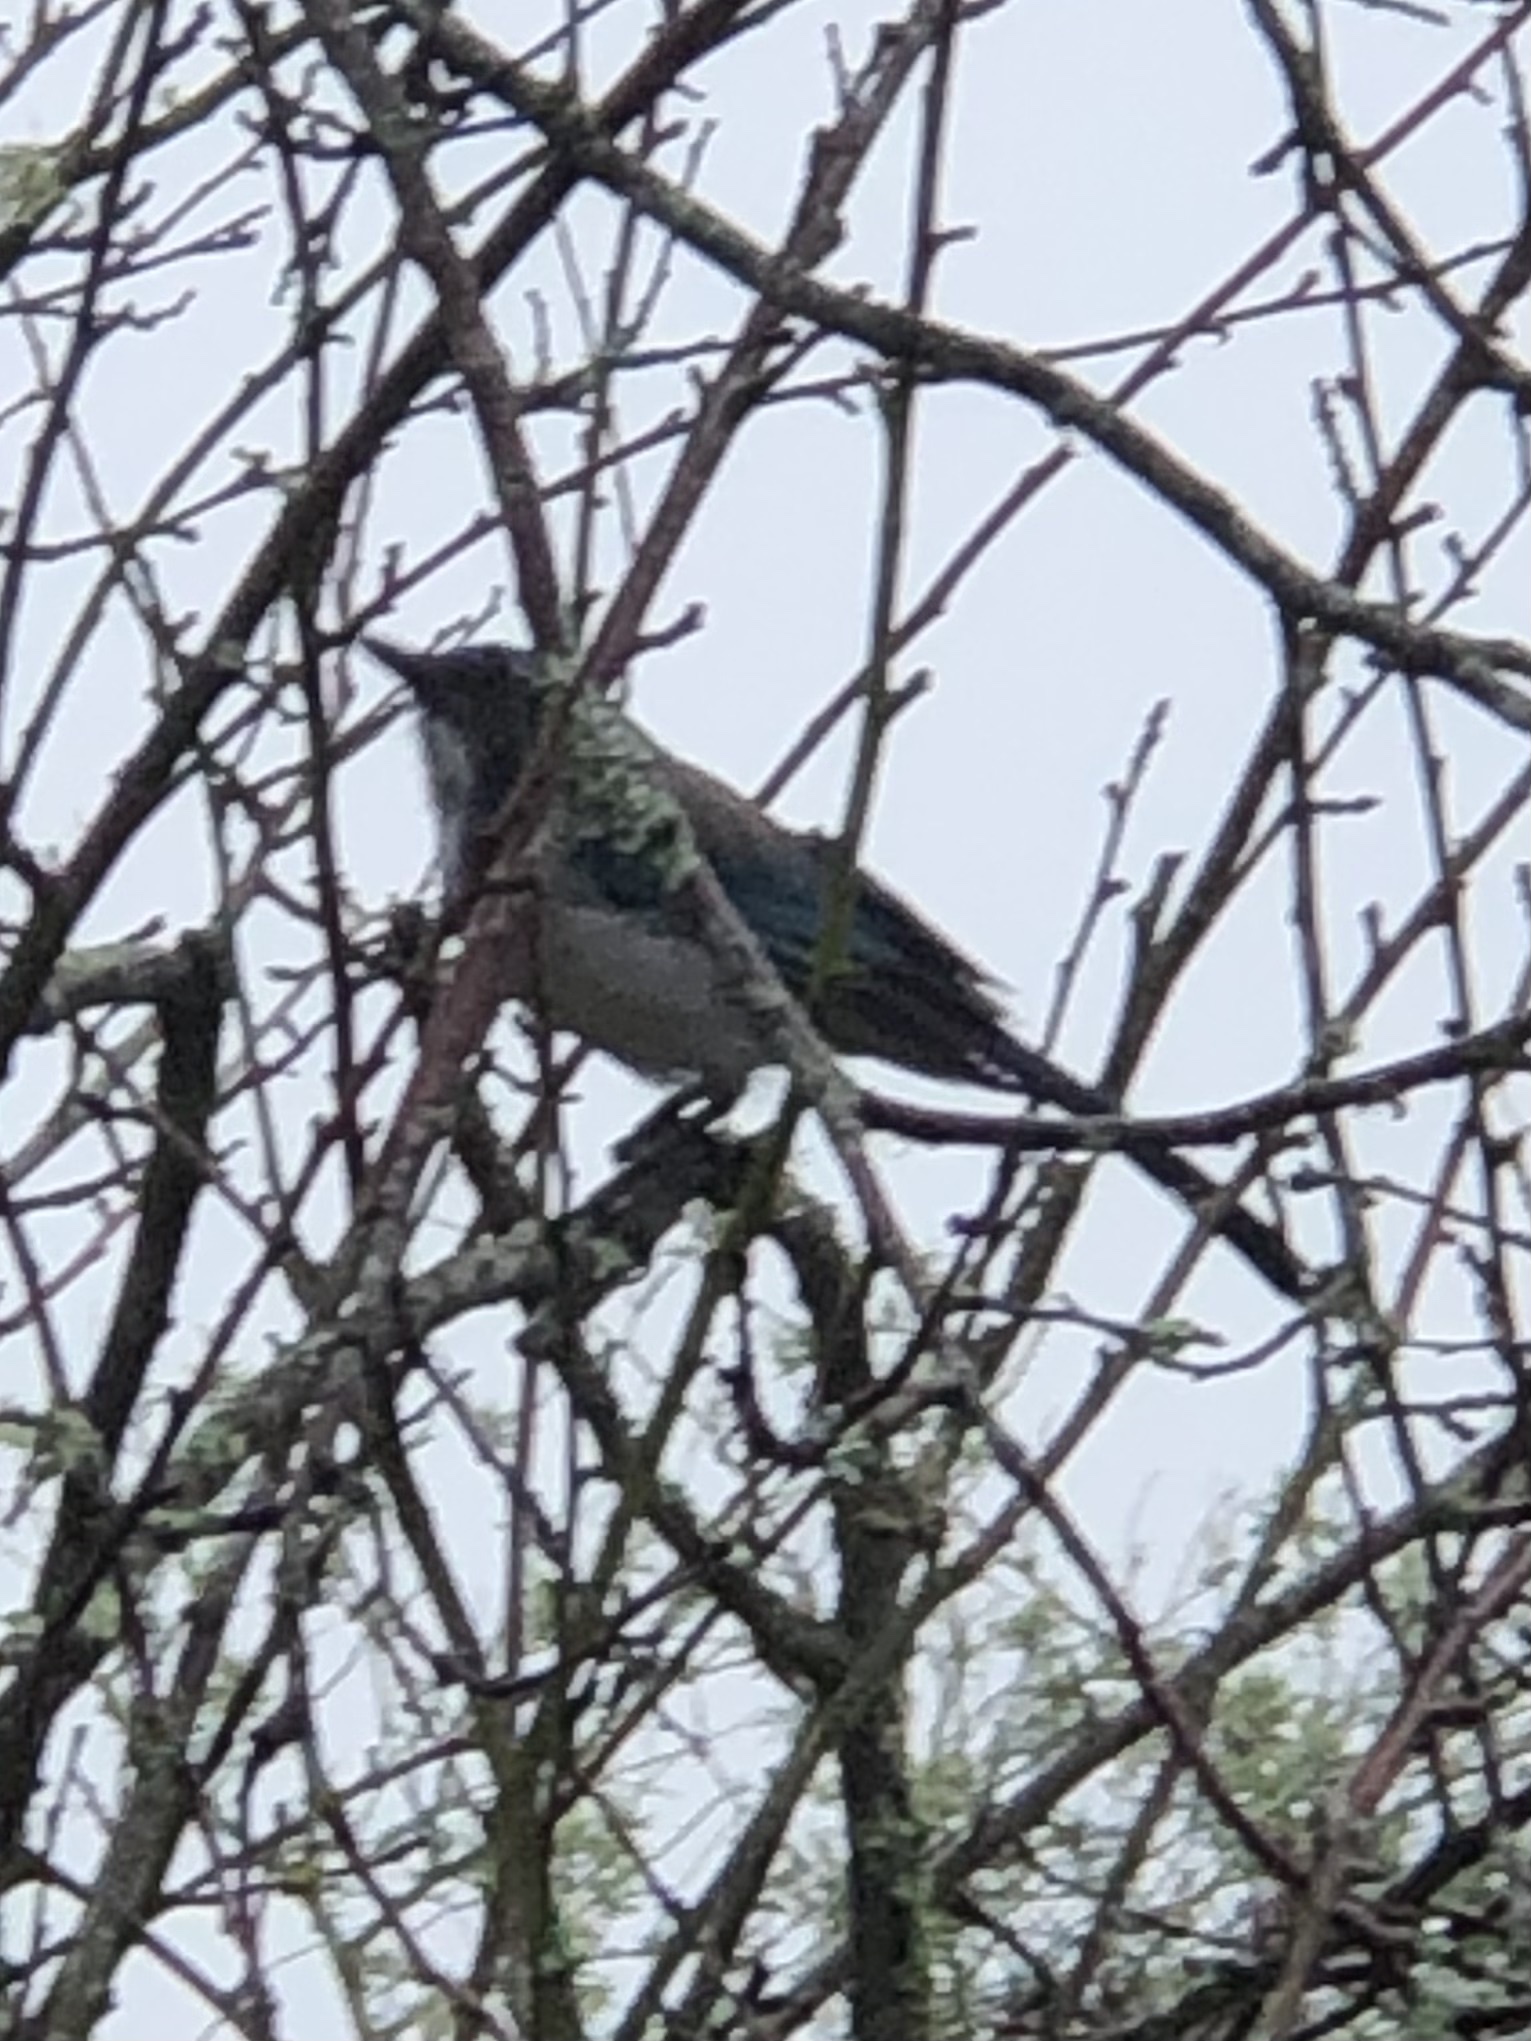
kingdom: Animalia
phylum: Chordata
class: Aves
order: Passeriformes
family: Corvidae
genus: Aphelocoma
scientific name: Aphelocoma californica
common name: California scrub-jay
